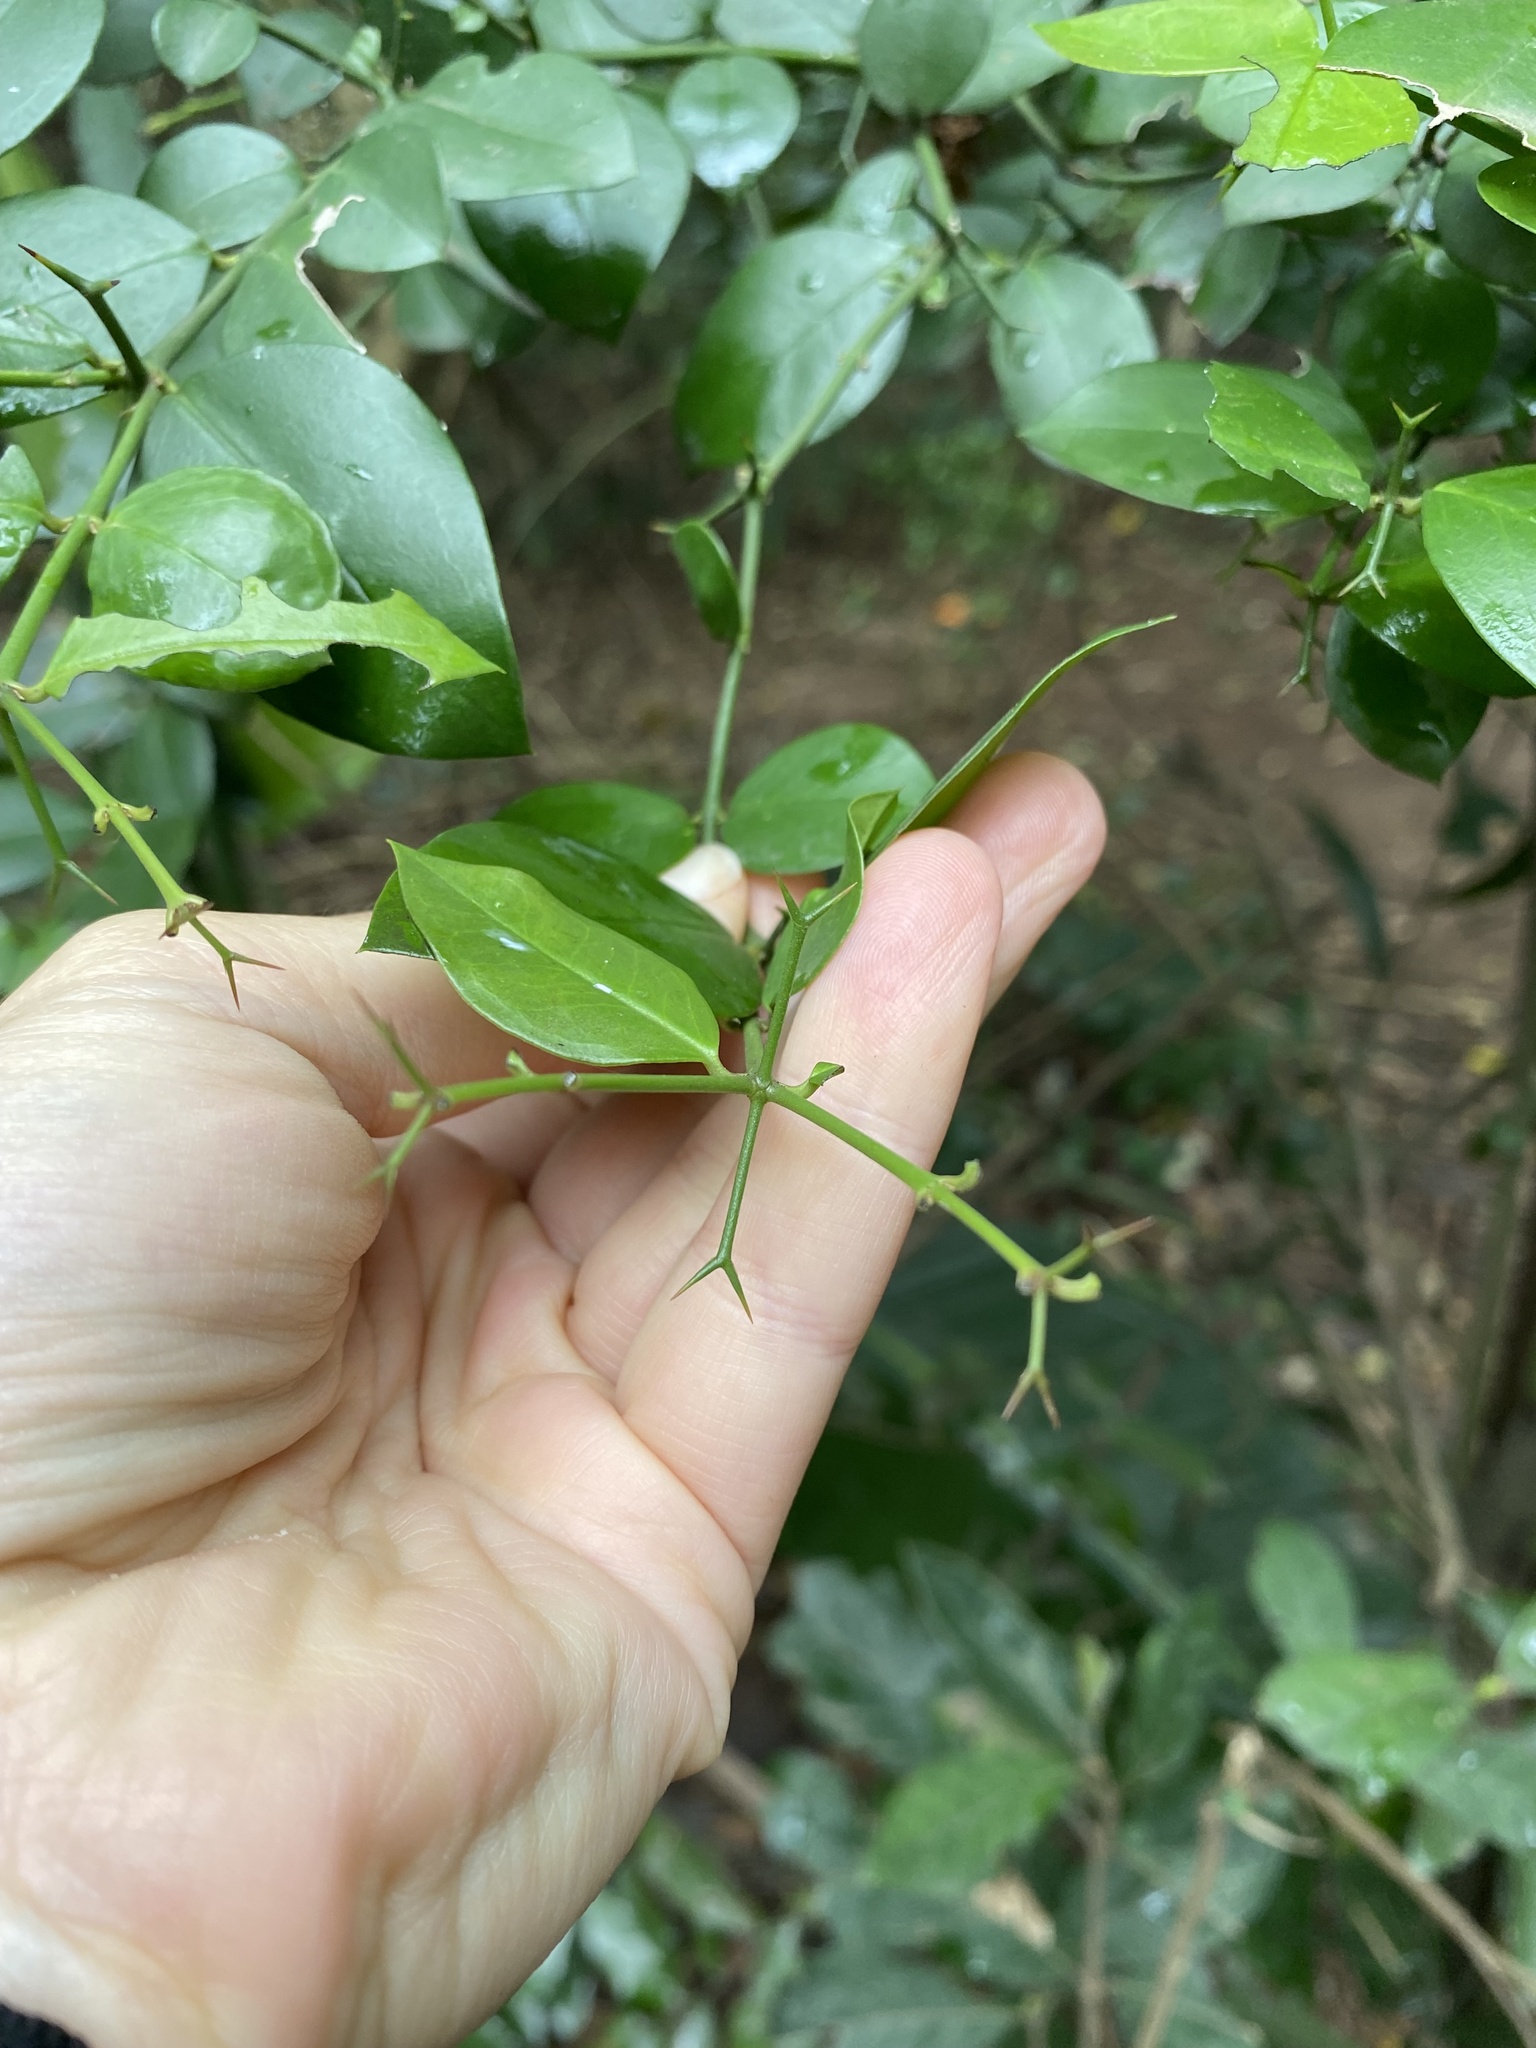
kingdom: Plantae
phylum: Tracheophyta
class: Magnoliopsida
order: Gentianales
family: Apocynaceae
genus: Carissa
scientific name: Carissa bispinosa
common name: Forest num-num
